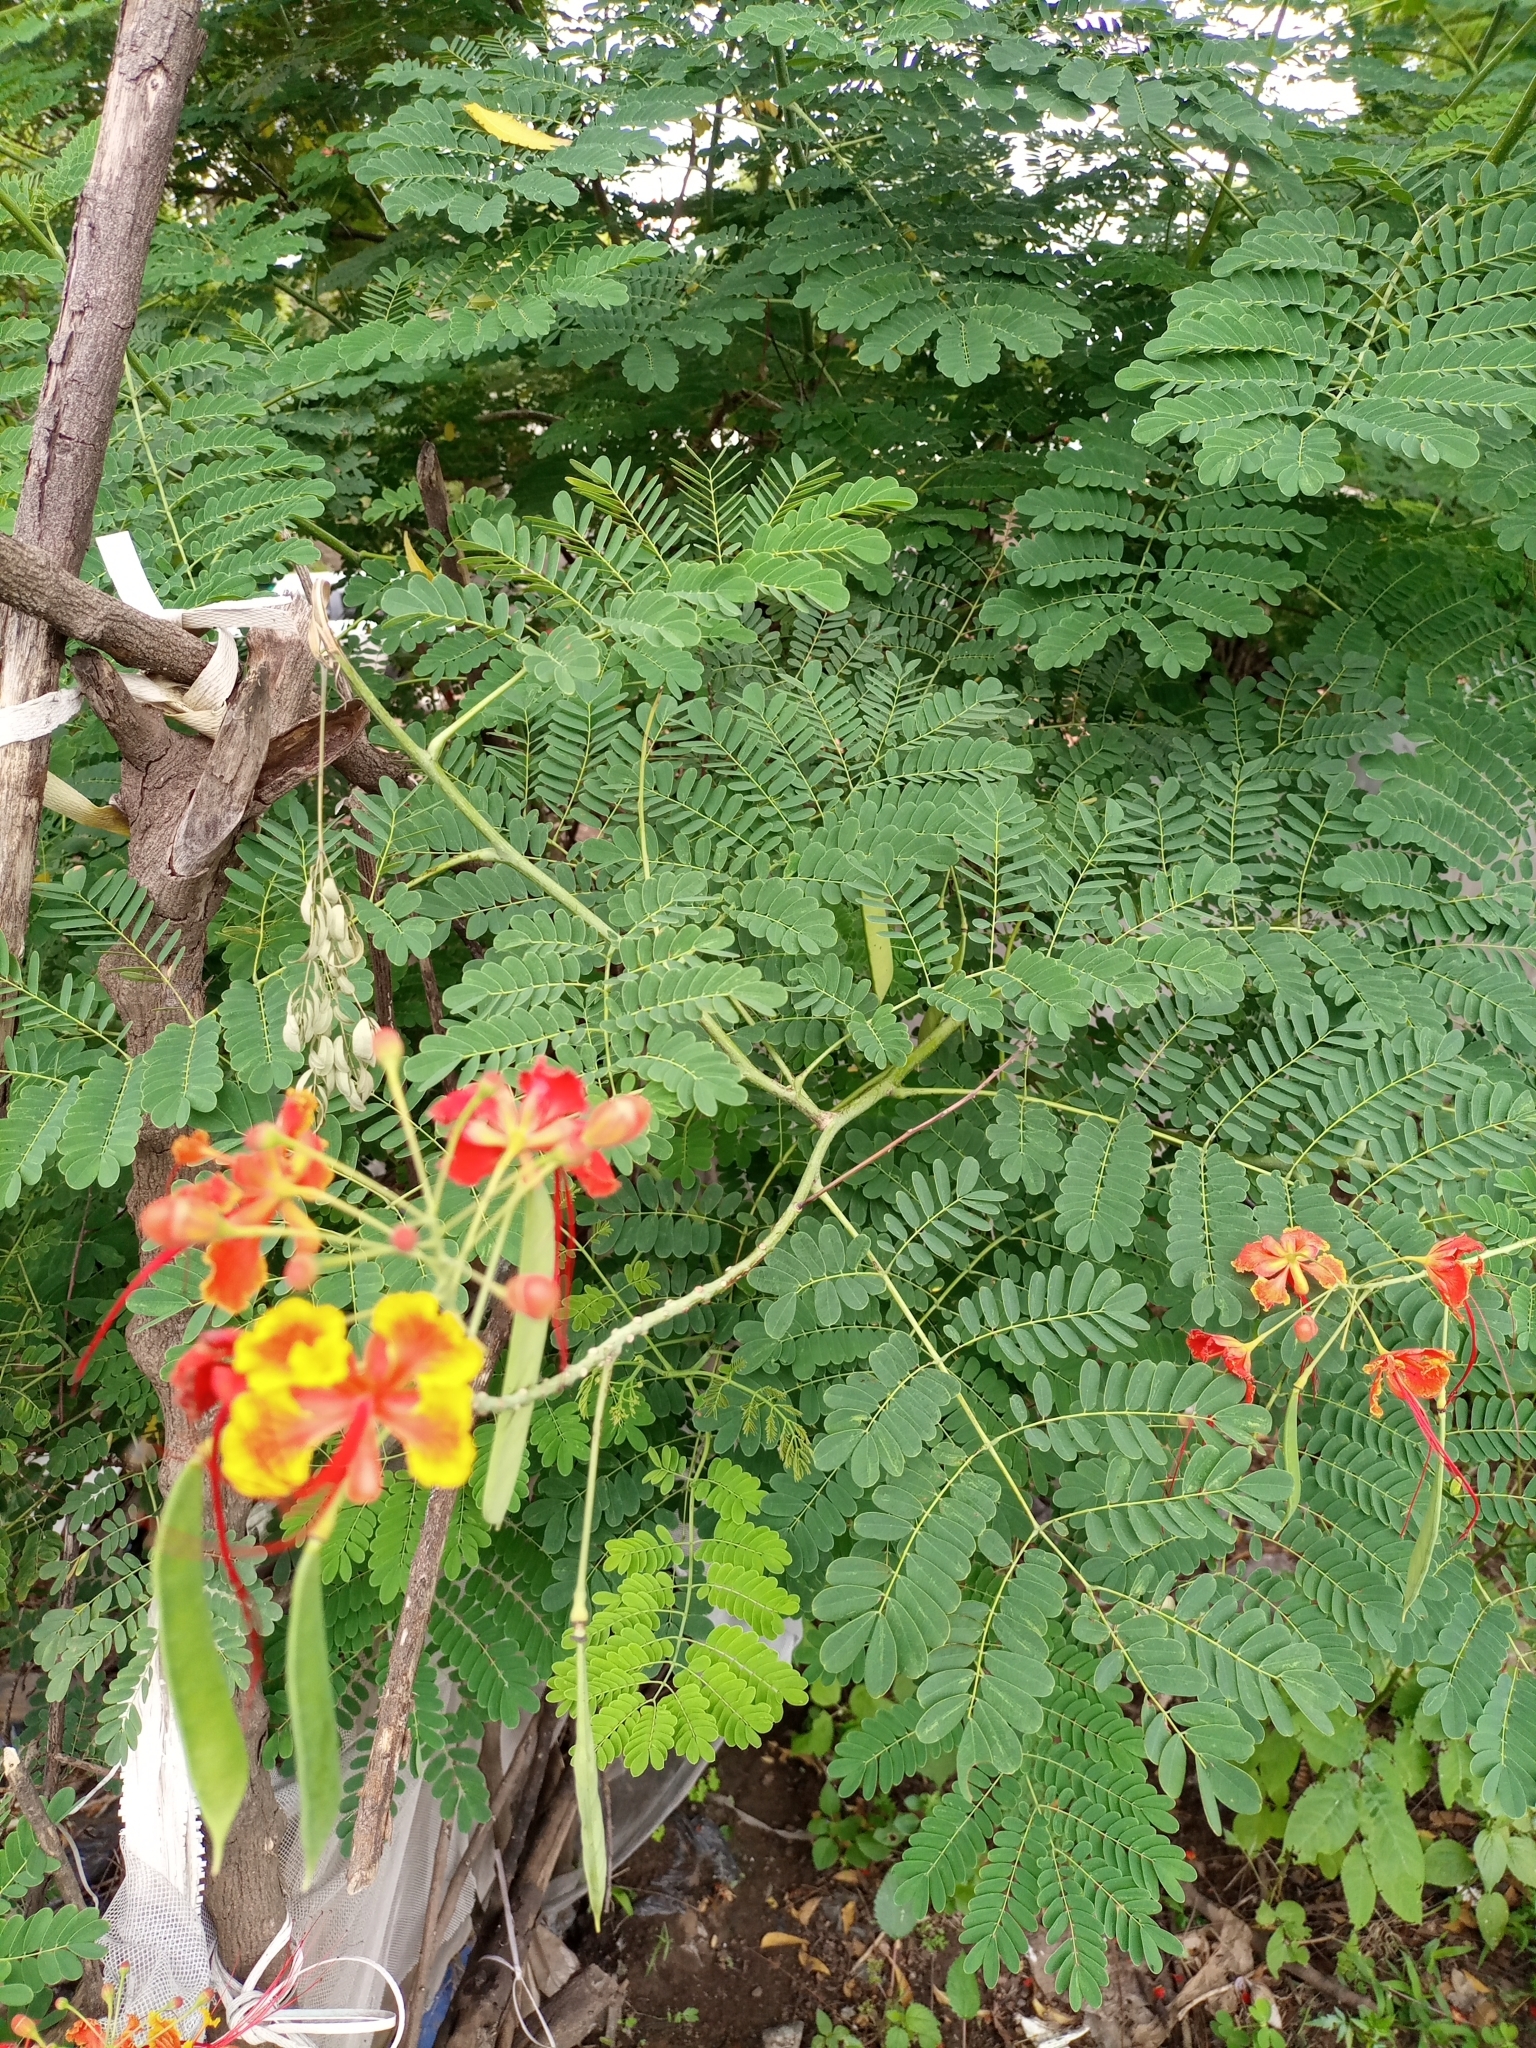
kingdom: Plantae
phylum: Tracheophyta
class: Magnoliopsida
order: Fabales
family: Fabaceae
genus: Caesalpinia
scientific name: Caesalpinia pulcherrima
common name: Pride-of-barbados
